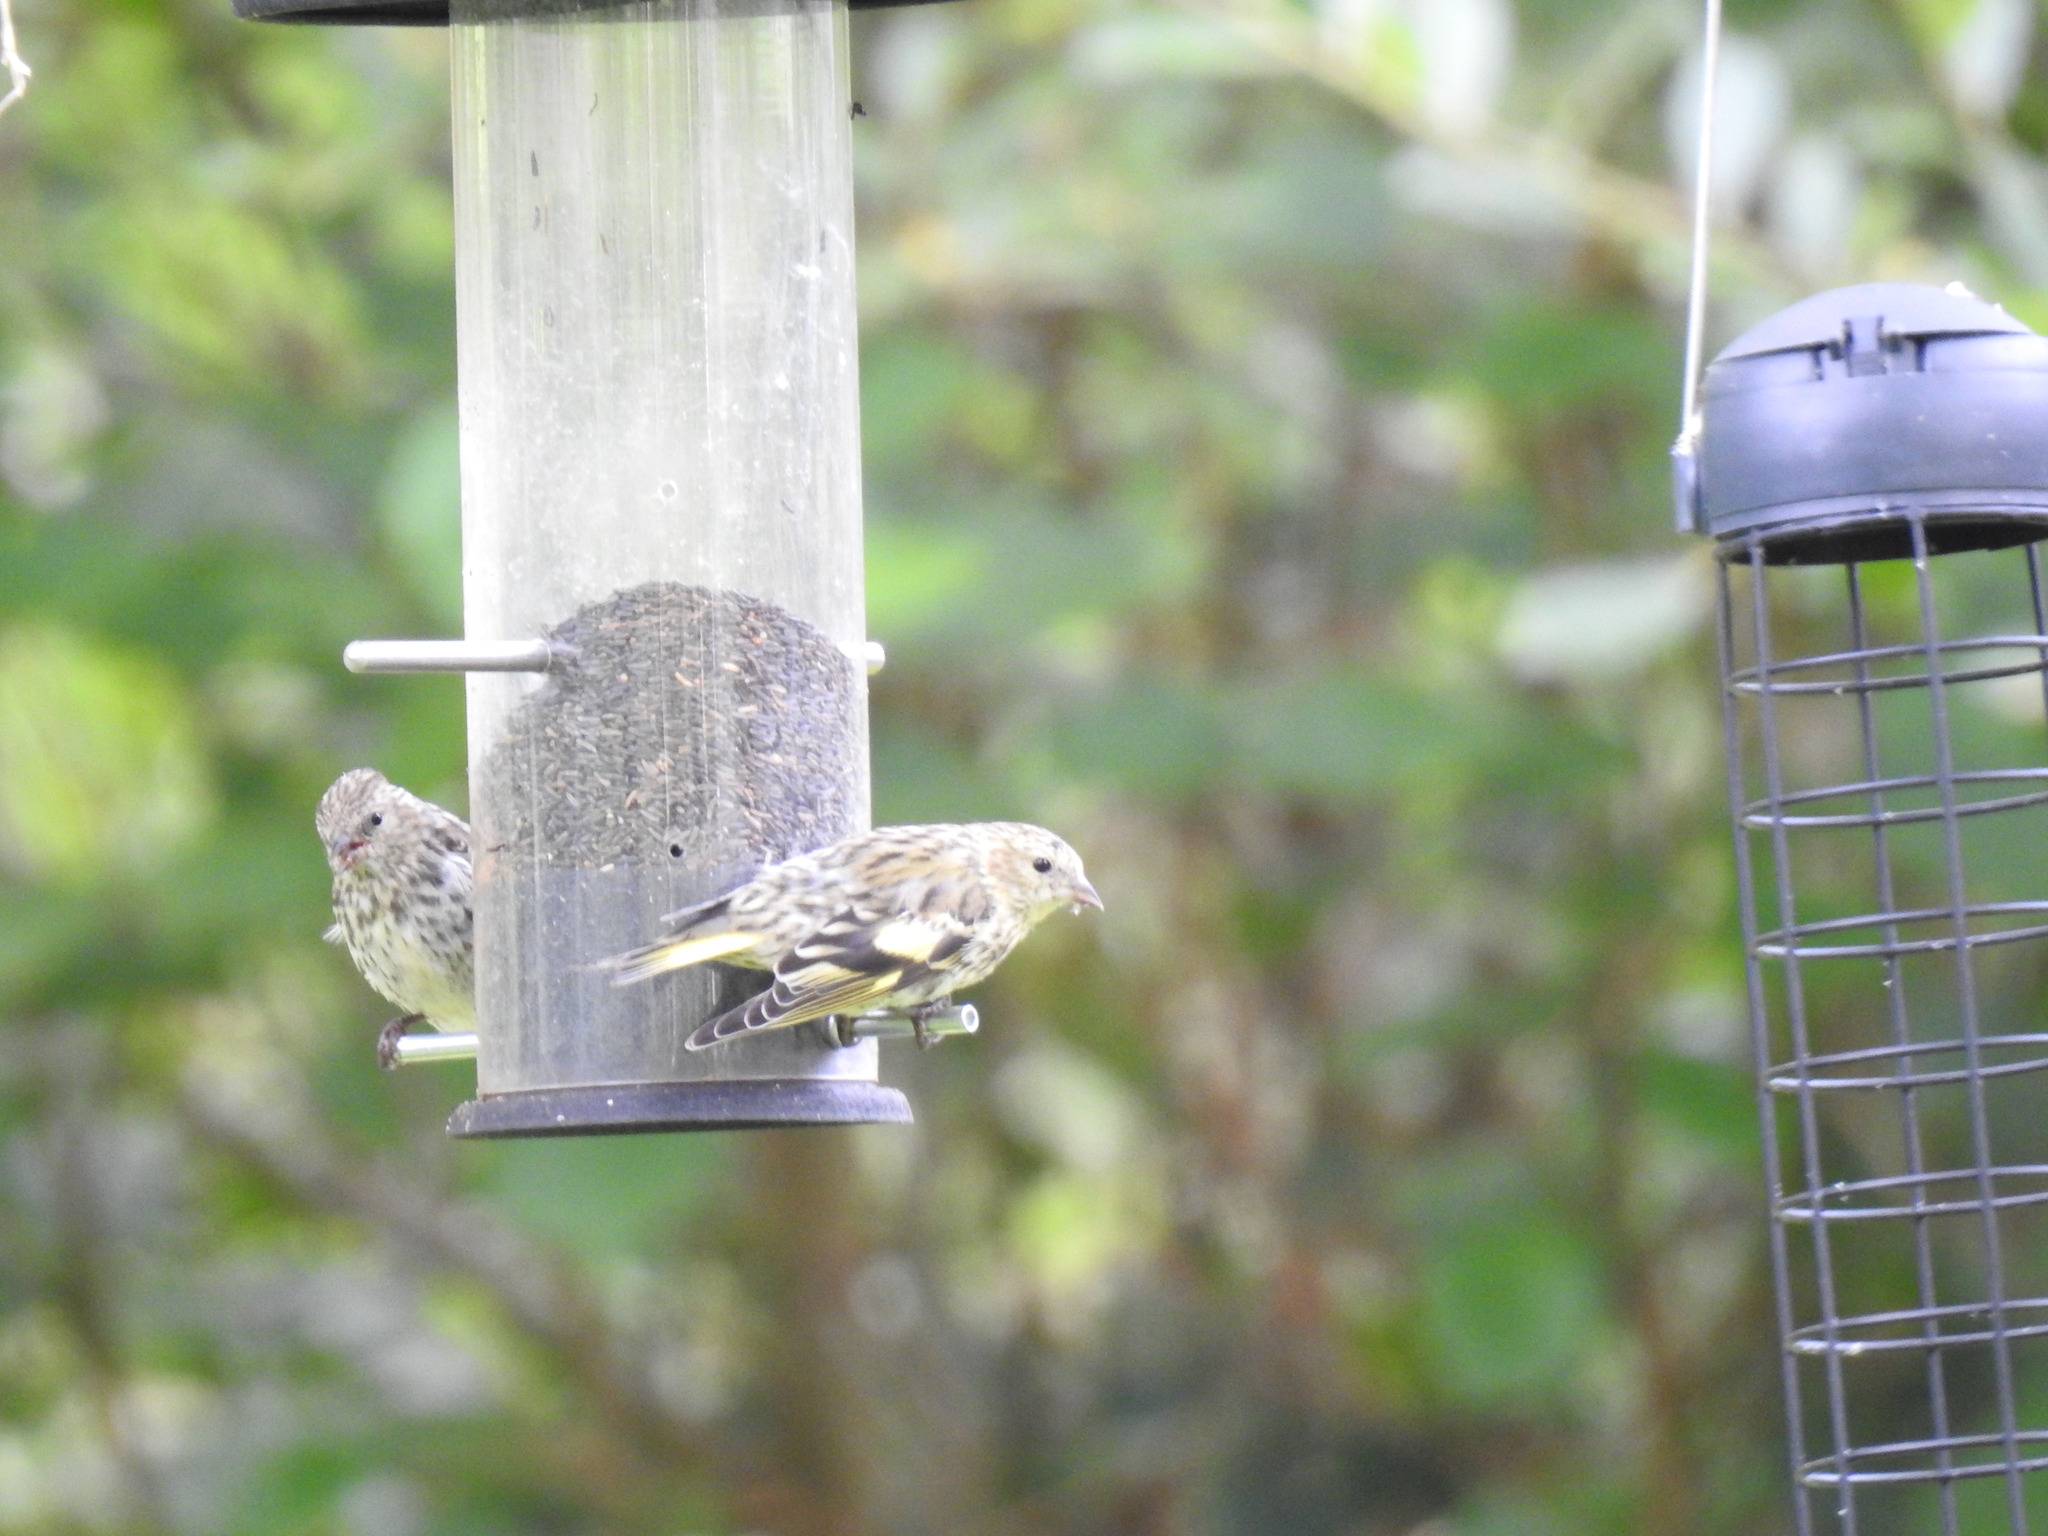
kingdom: Animalia
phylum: Chordata
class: Aves
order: Passeriformes
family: Fringillidae
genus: Spinus
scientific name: Spinus spinus
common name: Eurasian siskin
